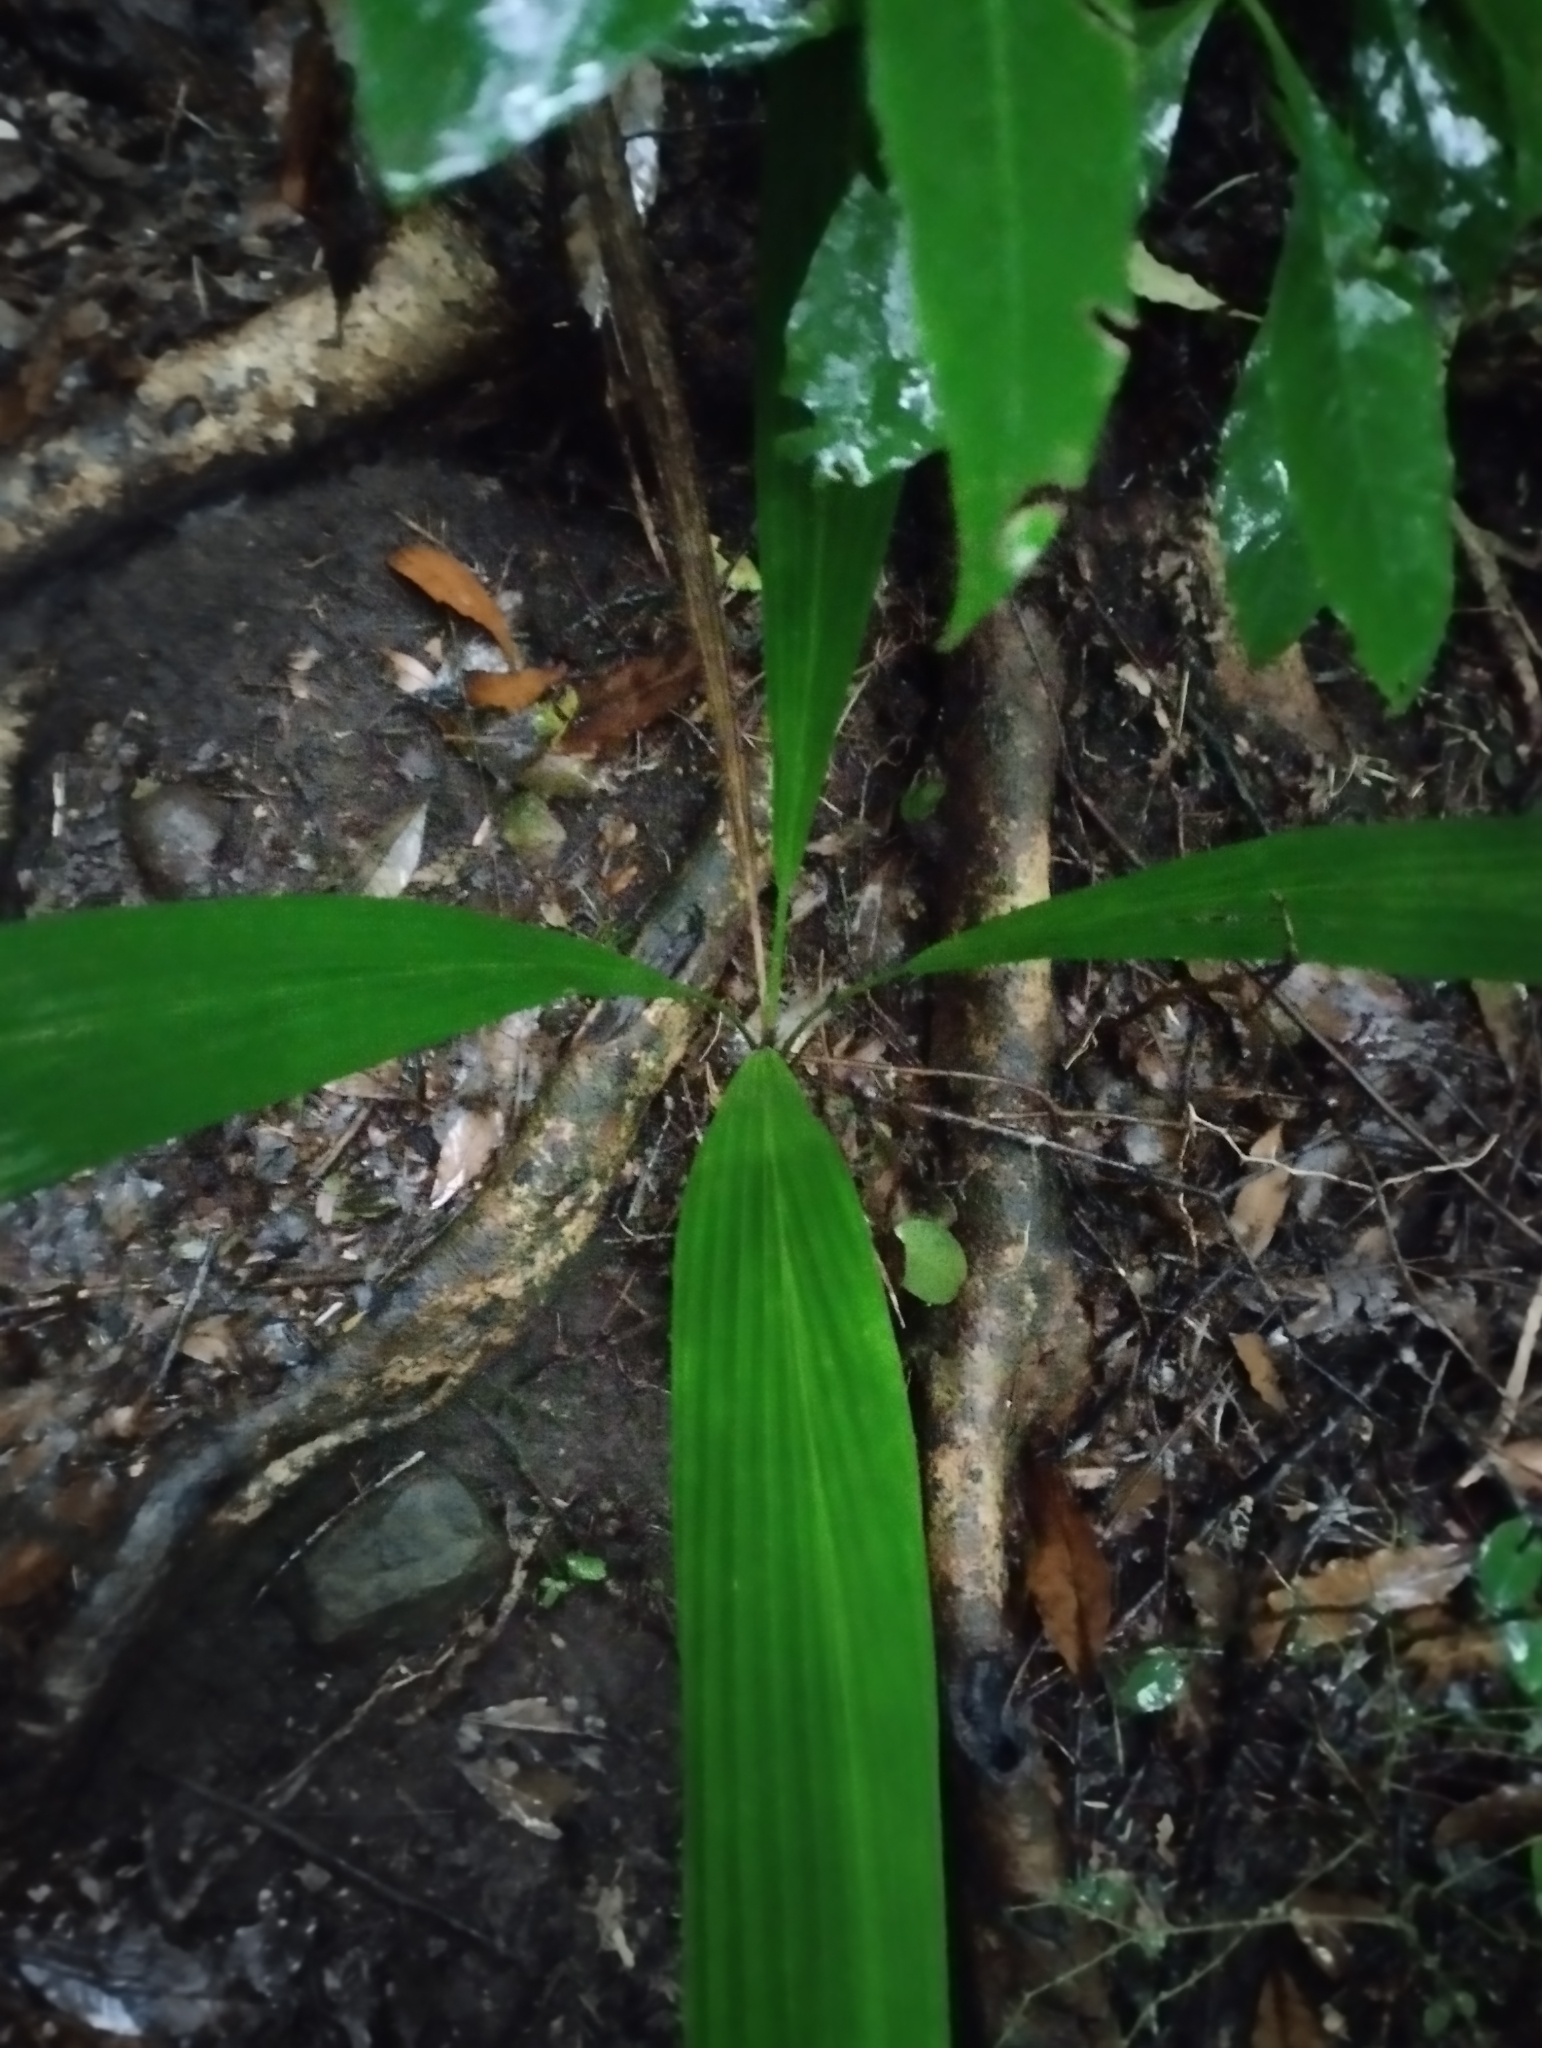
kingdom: Plantae
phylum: Tracheophyta
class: Liliopsida
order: Arecales
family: Arecaceae
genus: Syagrus
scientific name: Syagrus romanzoffiana
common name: Queen palm
